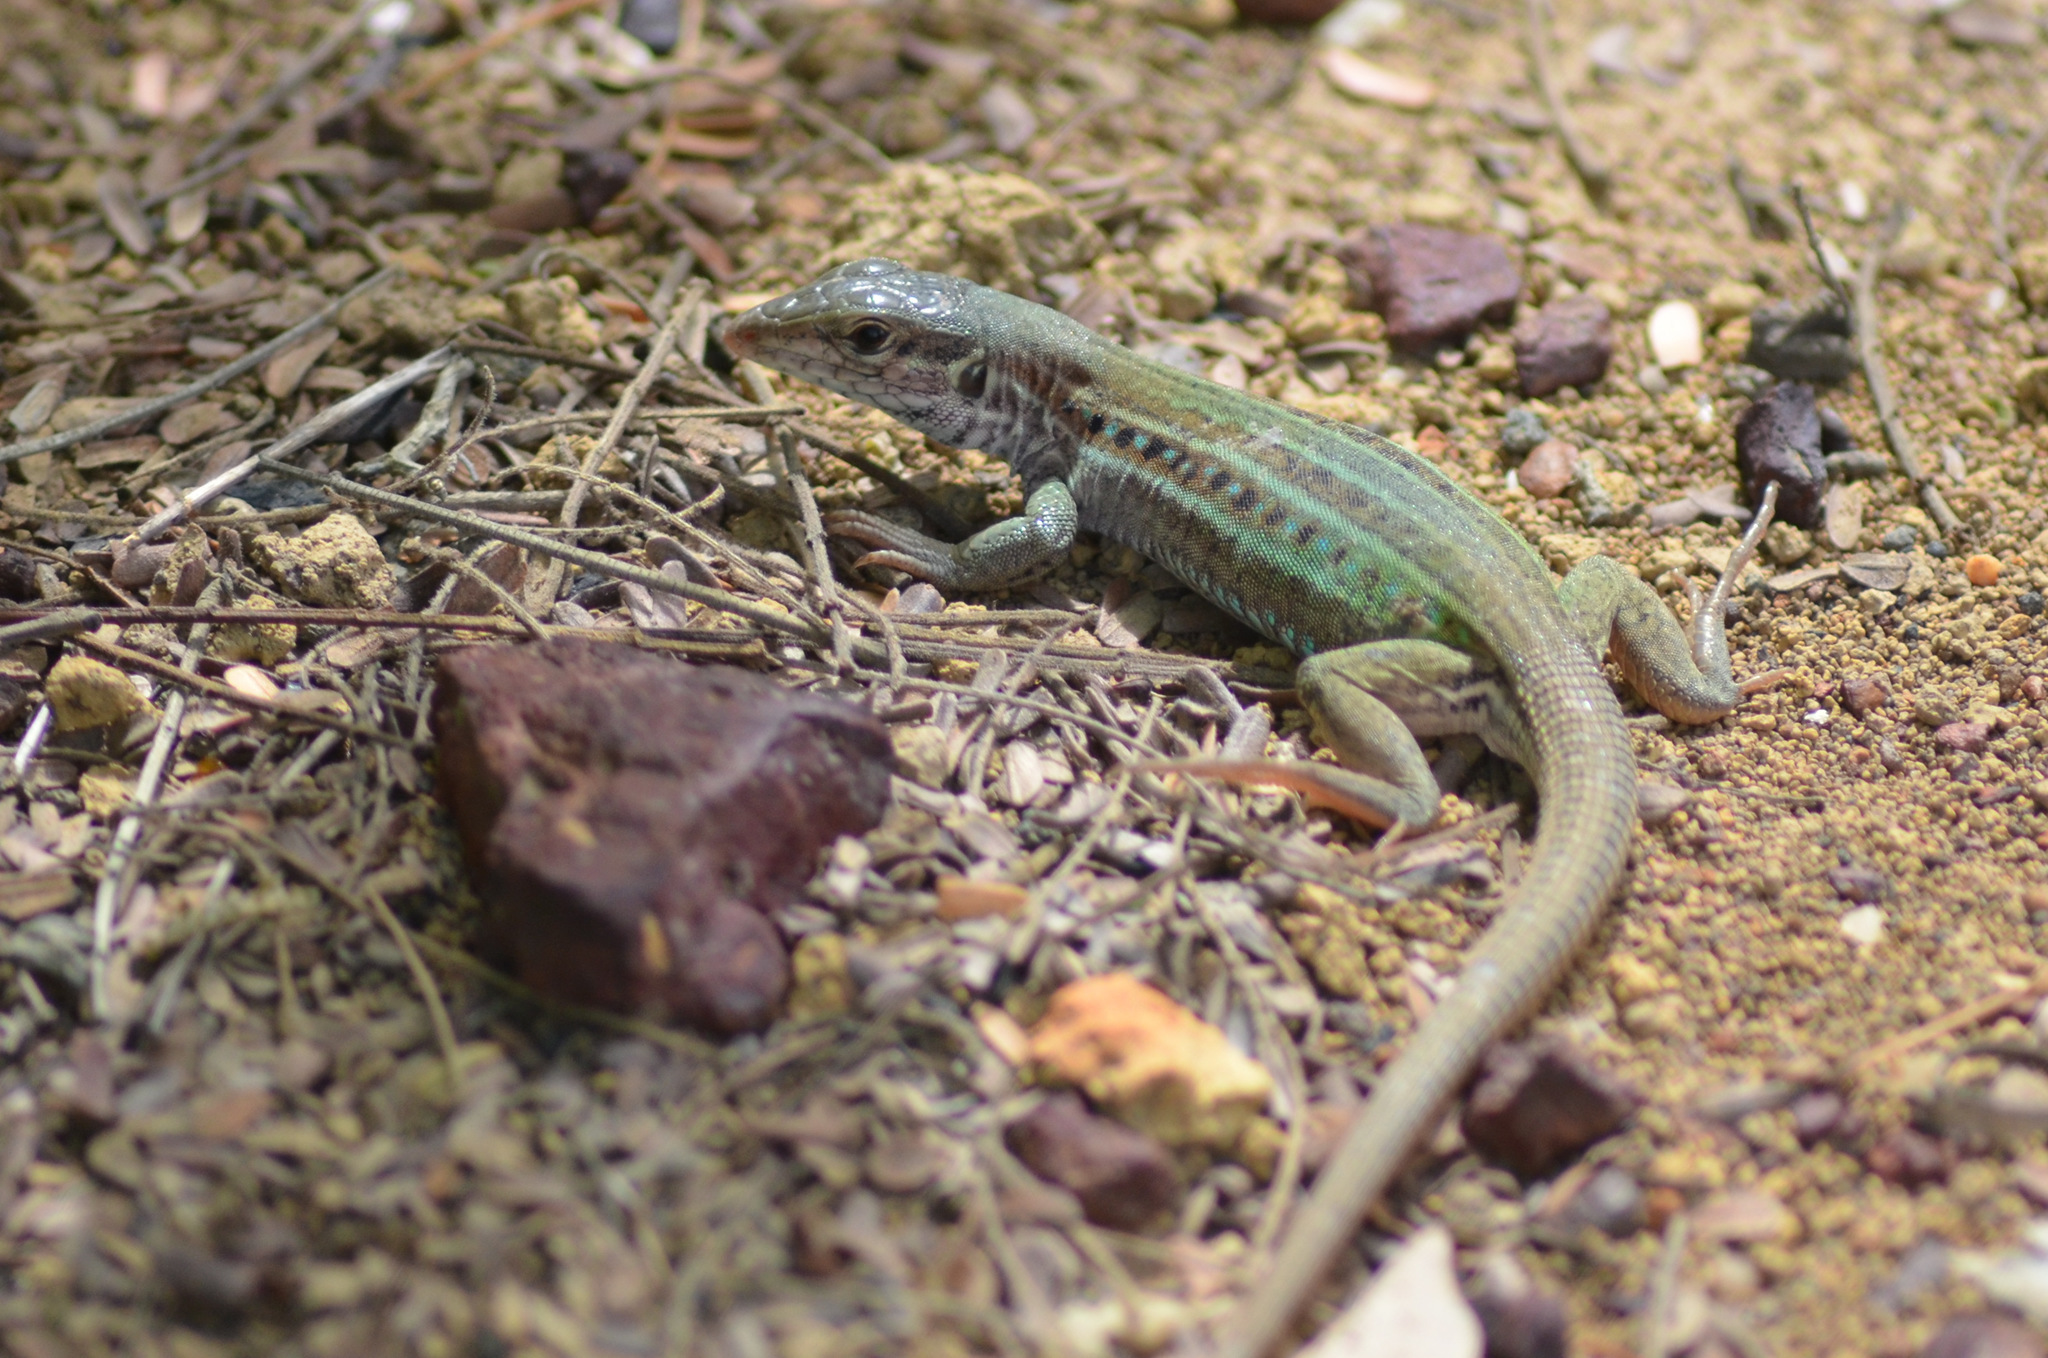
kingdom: Animalia
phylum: Chordata
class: Squamata
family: Teiidae
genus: Ameivula
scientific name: Ameivula ocellifera
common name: Spix's whiptail
